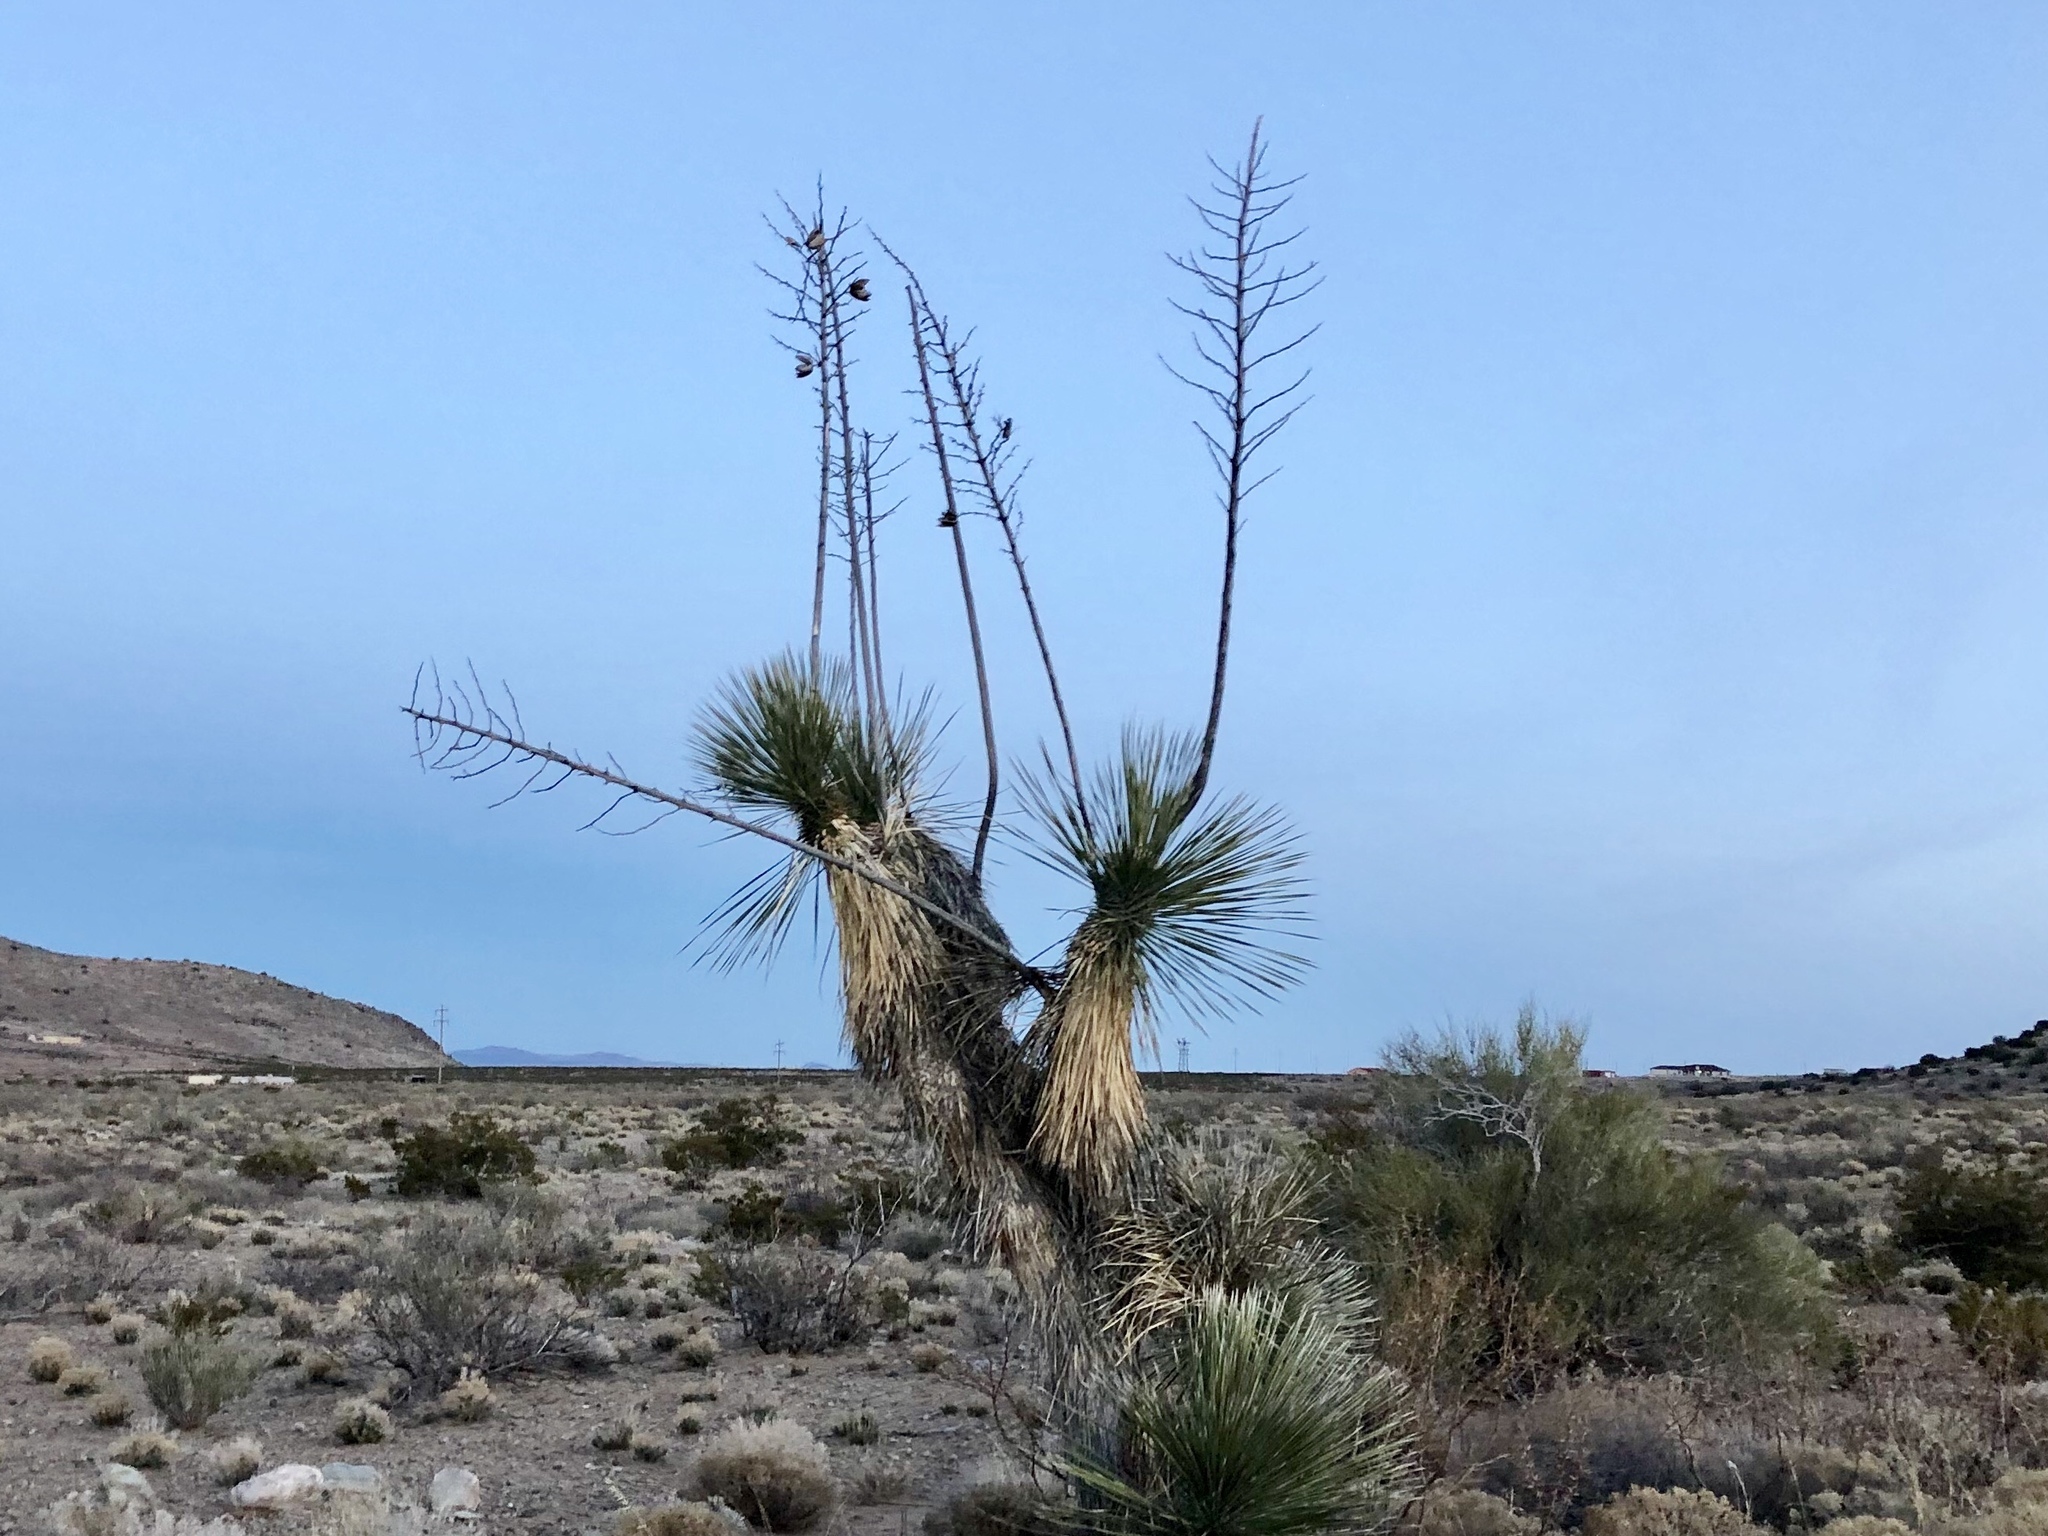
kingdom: Plantae
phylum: Tracheophyta
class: Liliopsida
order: Asparagales
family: Asparagaceae
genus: Yucca
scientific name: Yucca elata
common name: Palmella
